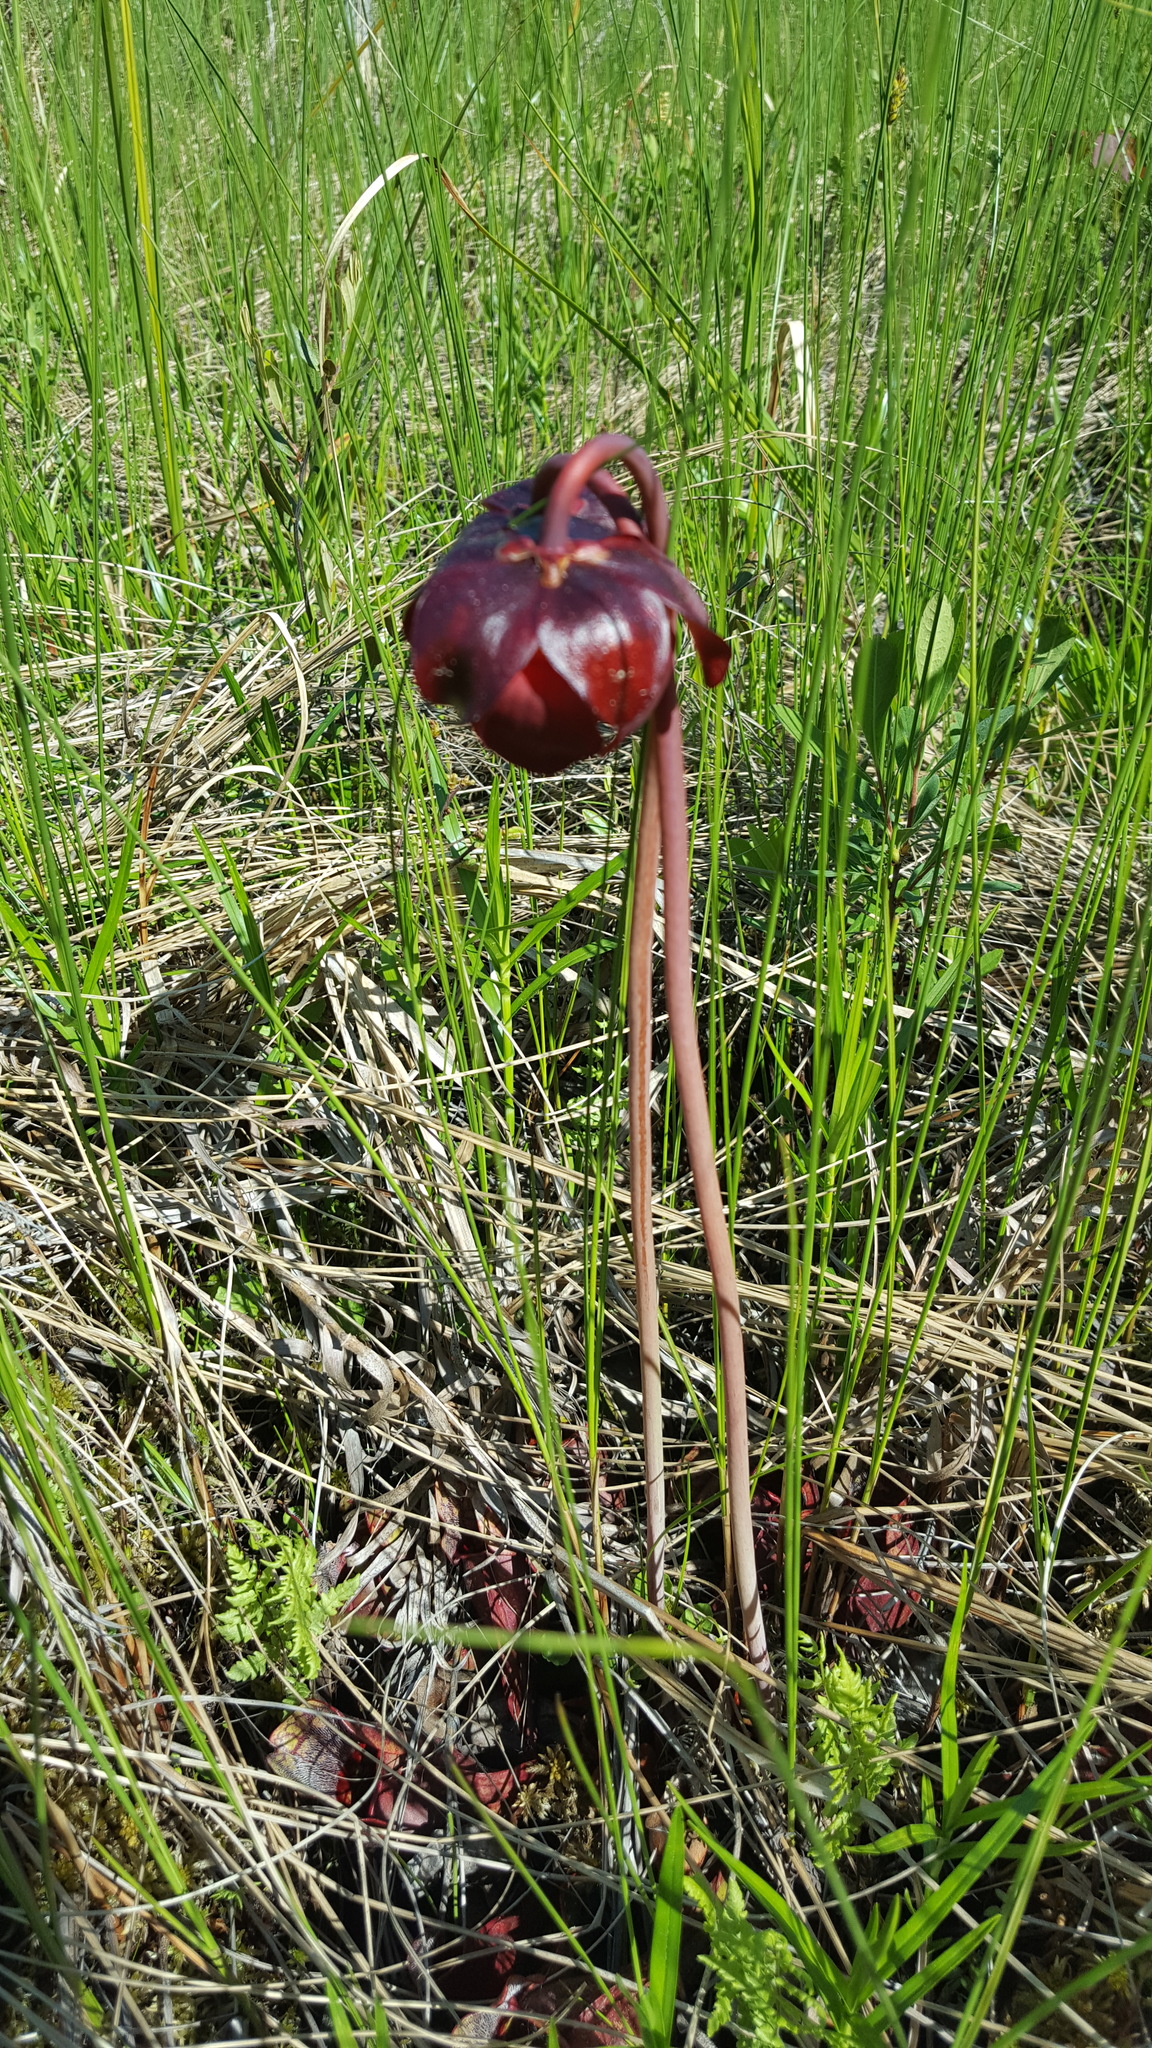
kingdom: Plantae
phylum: Tracheophyta
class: Magnoliopsida
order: Ericales
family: Sarraceniaceae
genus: Sarracenia
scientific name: Sarracenia purpurea
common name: Pitcherplant
